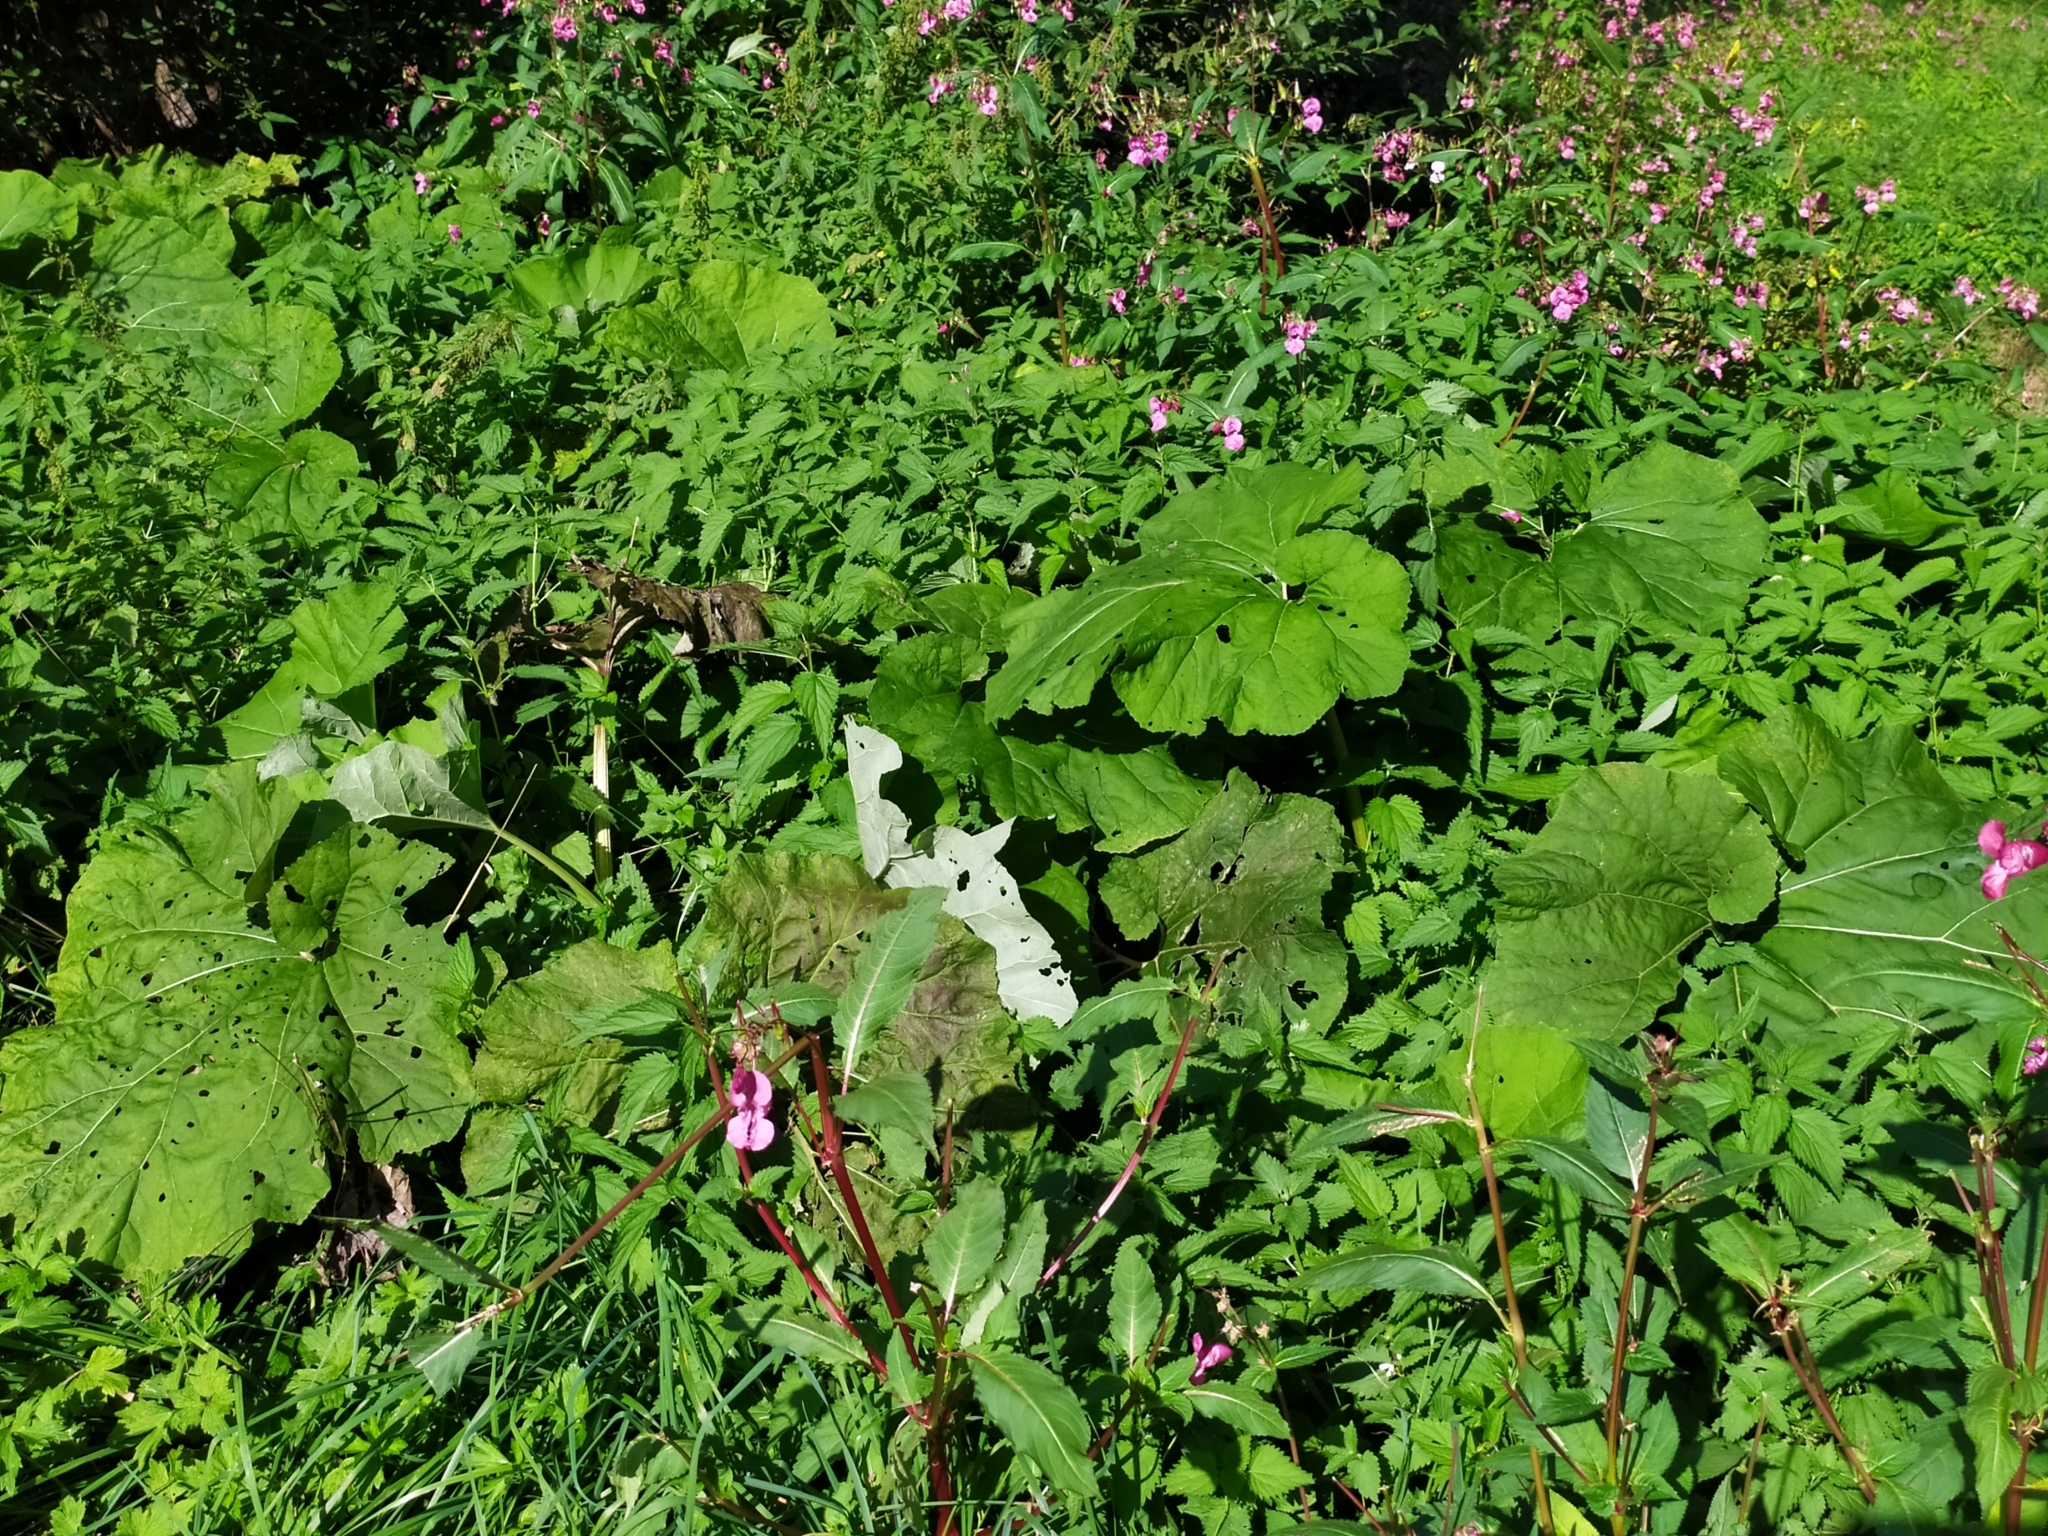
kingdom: Plantae
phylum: Tracheophyta
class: Magnoliopsida
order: Asterales
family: Asteraceae
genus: Petasites
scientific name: Petasites hybridus
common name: Butterbur
